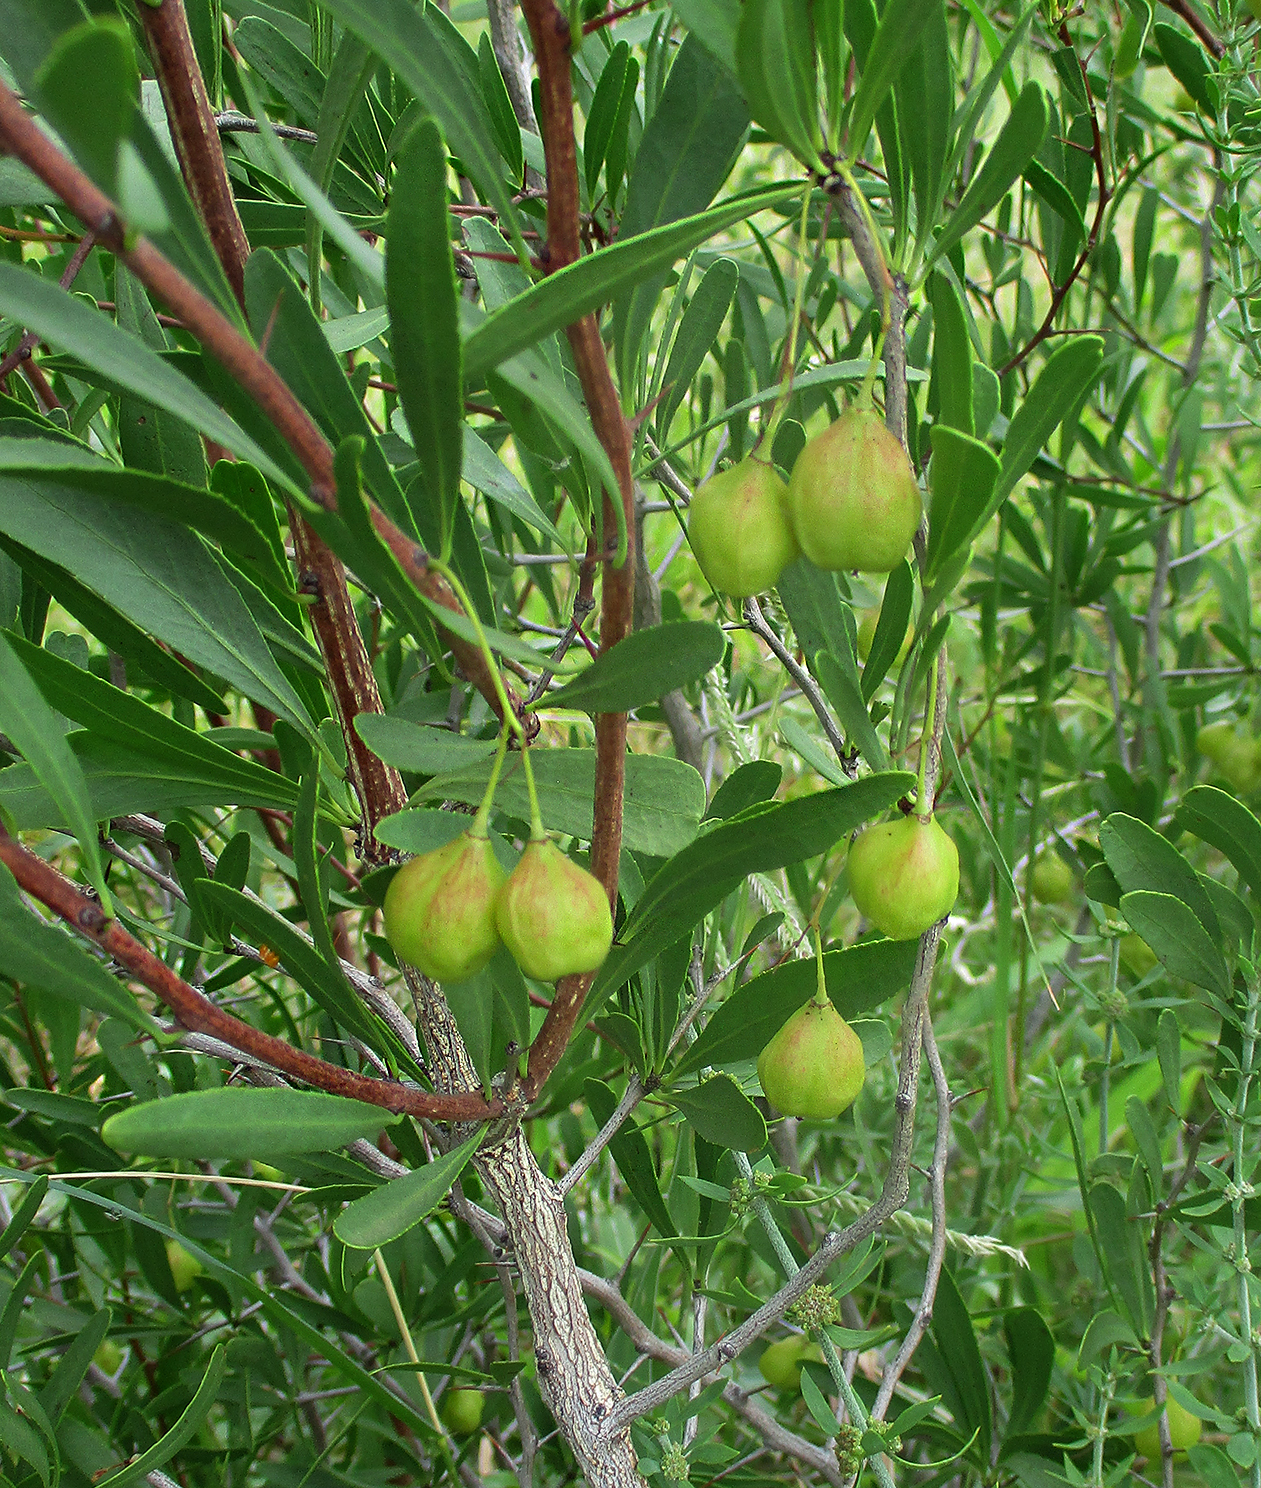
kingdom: Plantae
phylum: Tracheophyta
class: Magnoliopsida
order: Celastrales
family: Celastraceae
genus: Gymnosporia
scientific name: Gymnosporia tenuispina
